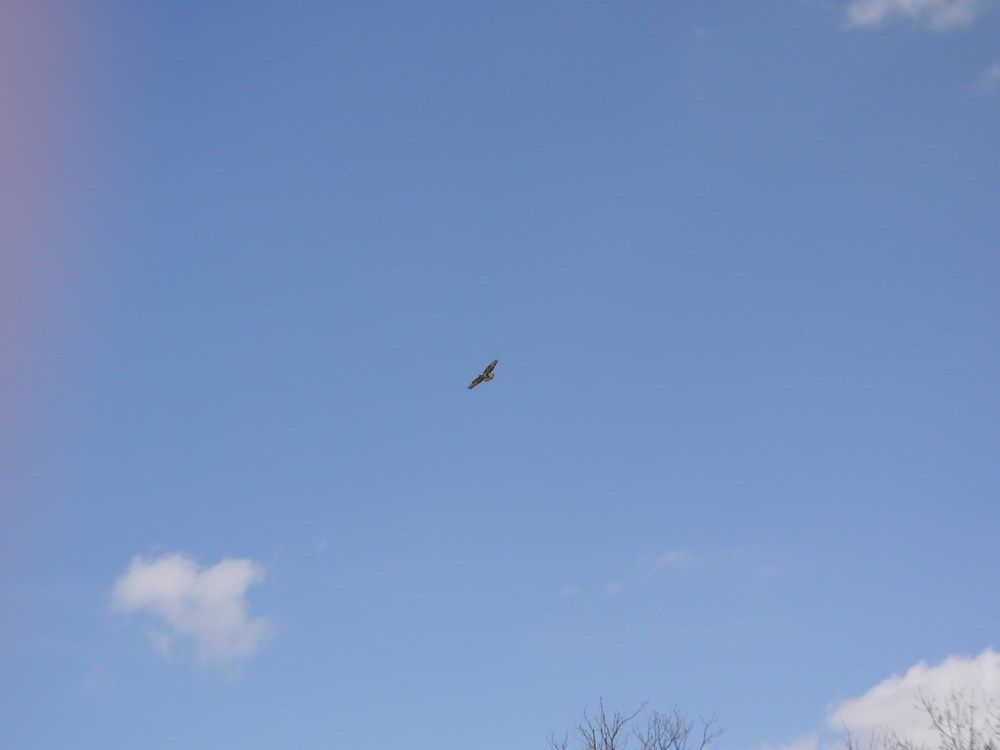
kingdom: Animalia
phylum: Chordata
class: Aves
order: Accipitriformes
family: Accipitridae
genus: Buteo
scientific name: Buteo lagopus
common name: Rough-legged buzzard
